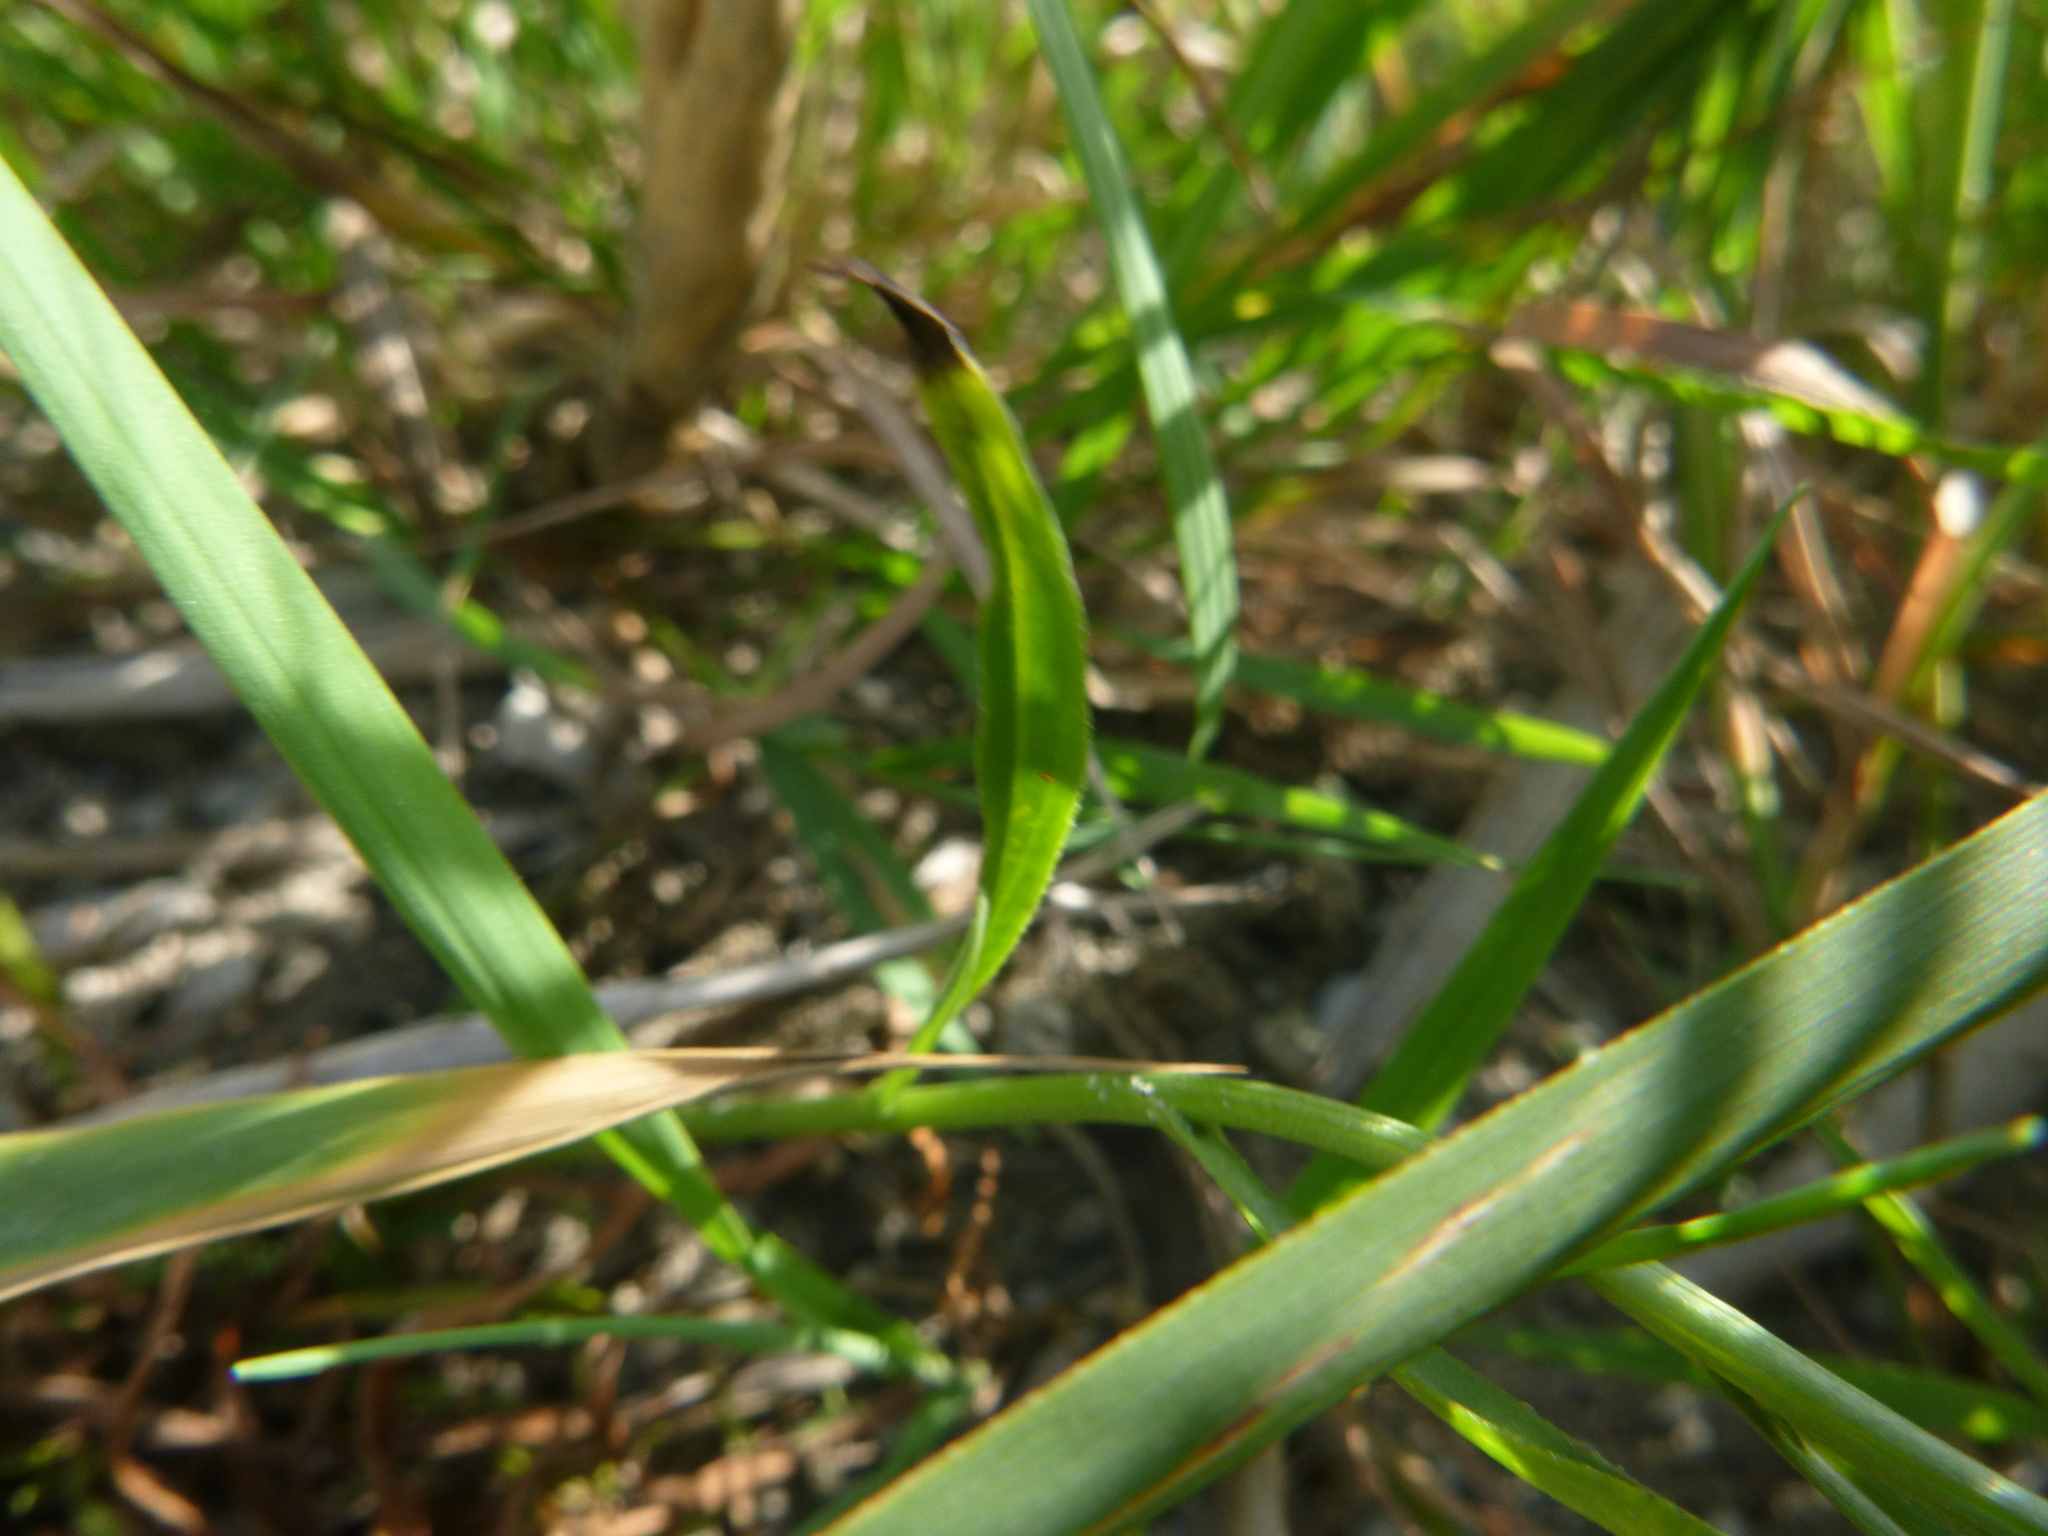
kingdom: Plantae
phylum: Tracheophyta
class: Magnoliopsida
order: Asterales
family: Asteraceae
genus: Tripolium
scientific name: Tripolium pannonicum
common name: Sea aster
